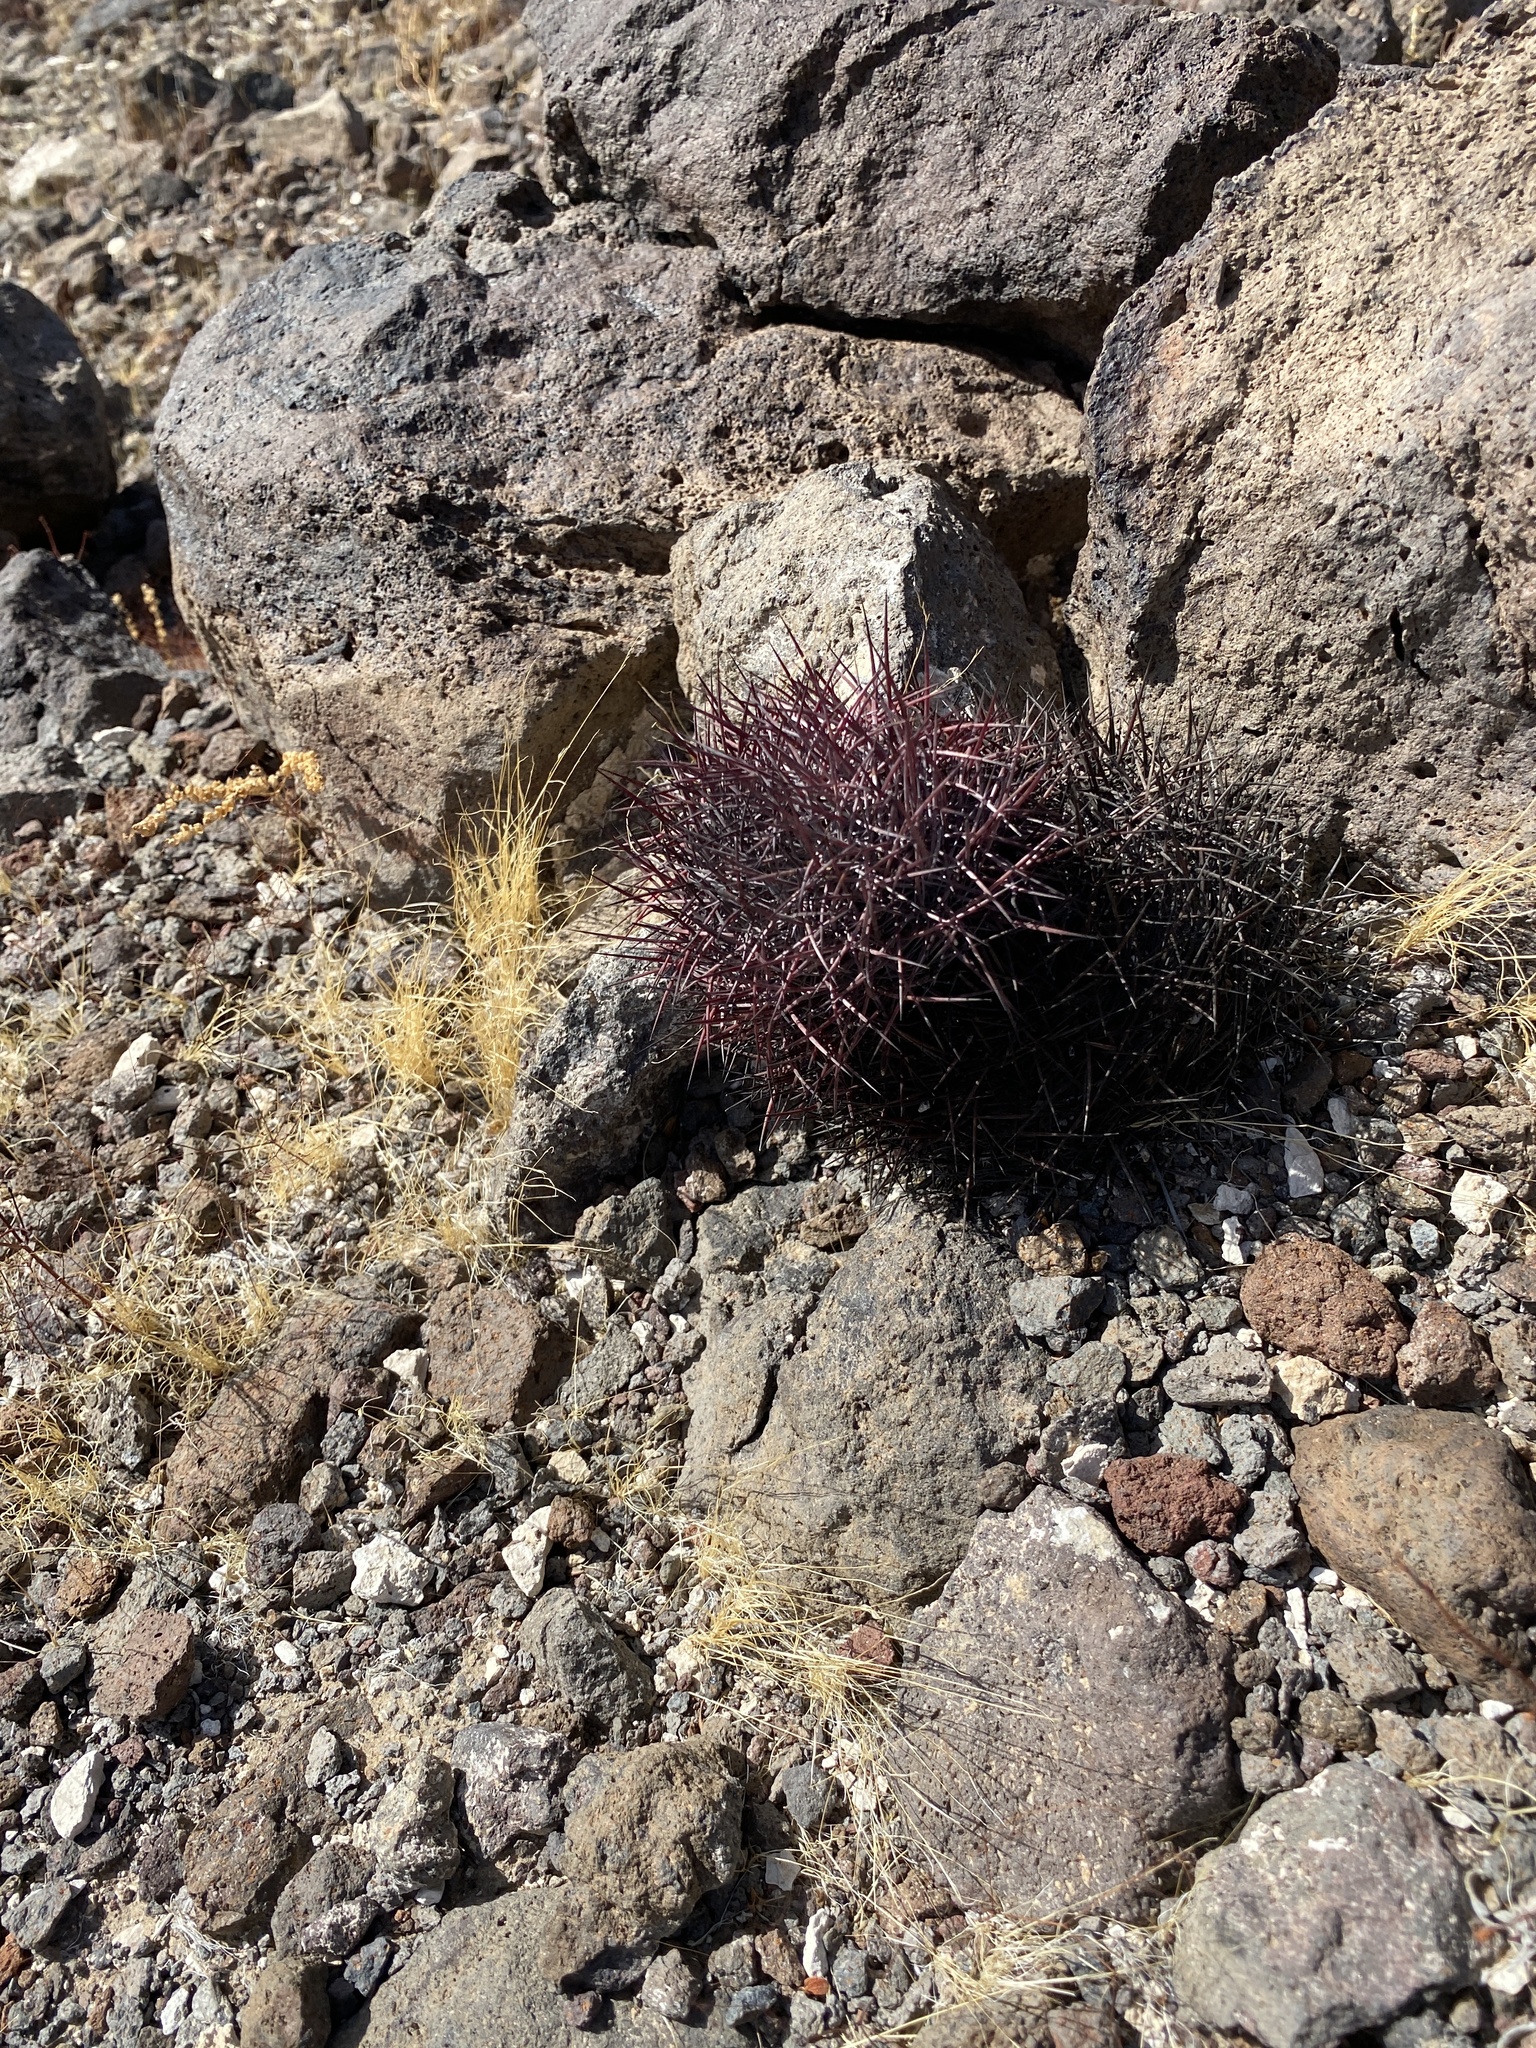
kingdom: Plantae
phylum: Tracheophyta
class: Magnoliopsida
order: Caryophyllales
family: Cactaceae
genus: Sclerocactus
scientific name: Sclerocactus johnsonii
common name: Eight-spine fishhook cactus
